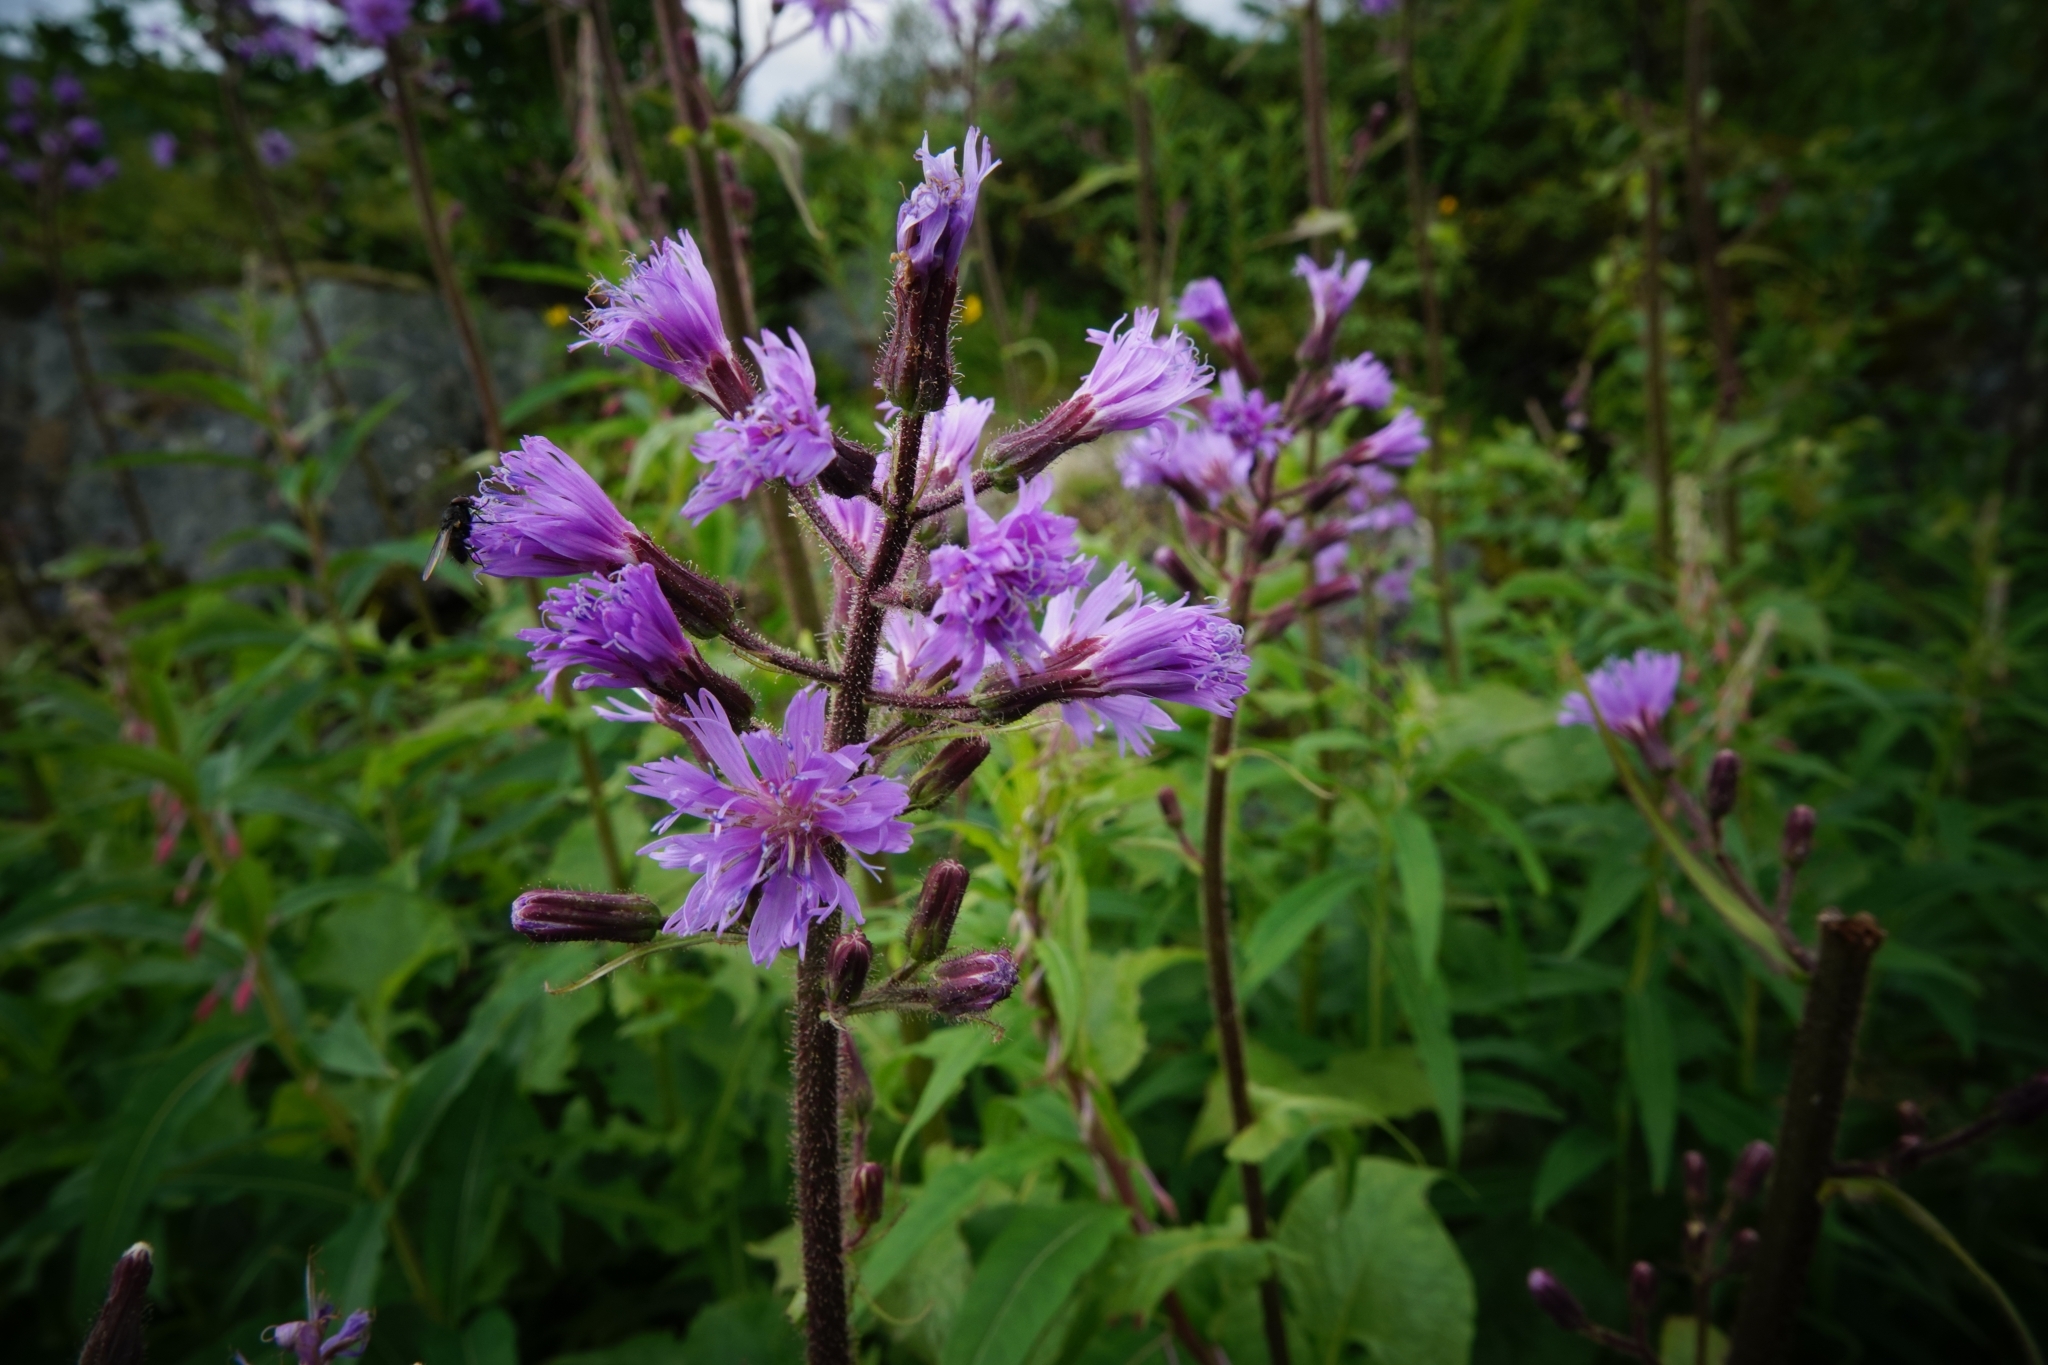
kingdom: Plantae
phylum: Tracheophyta
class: Magnoliopsida
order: Asterales
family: Asteraceae
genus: Cicerbita
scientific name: Cicerbita alpina
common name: Alpine blue-sow-thistle
